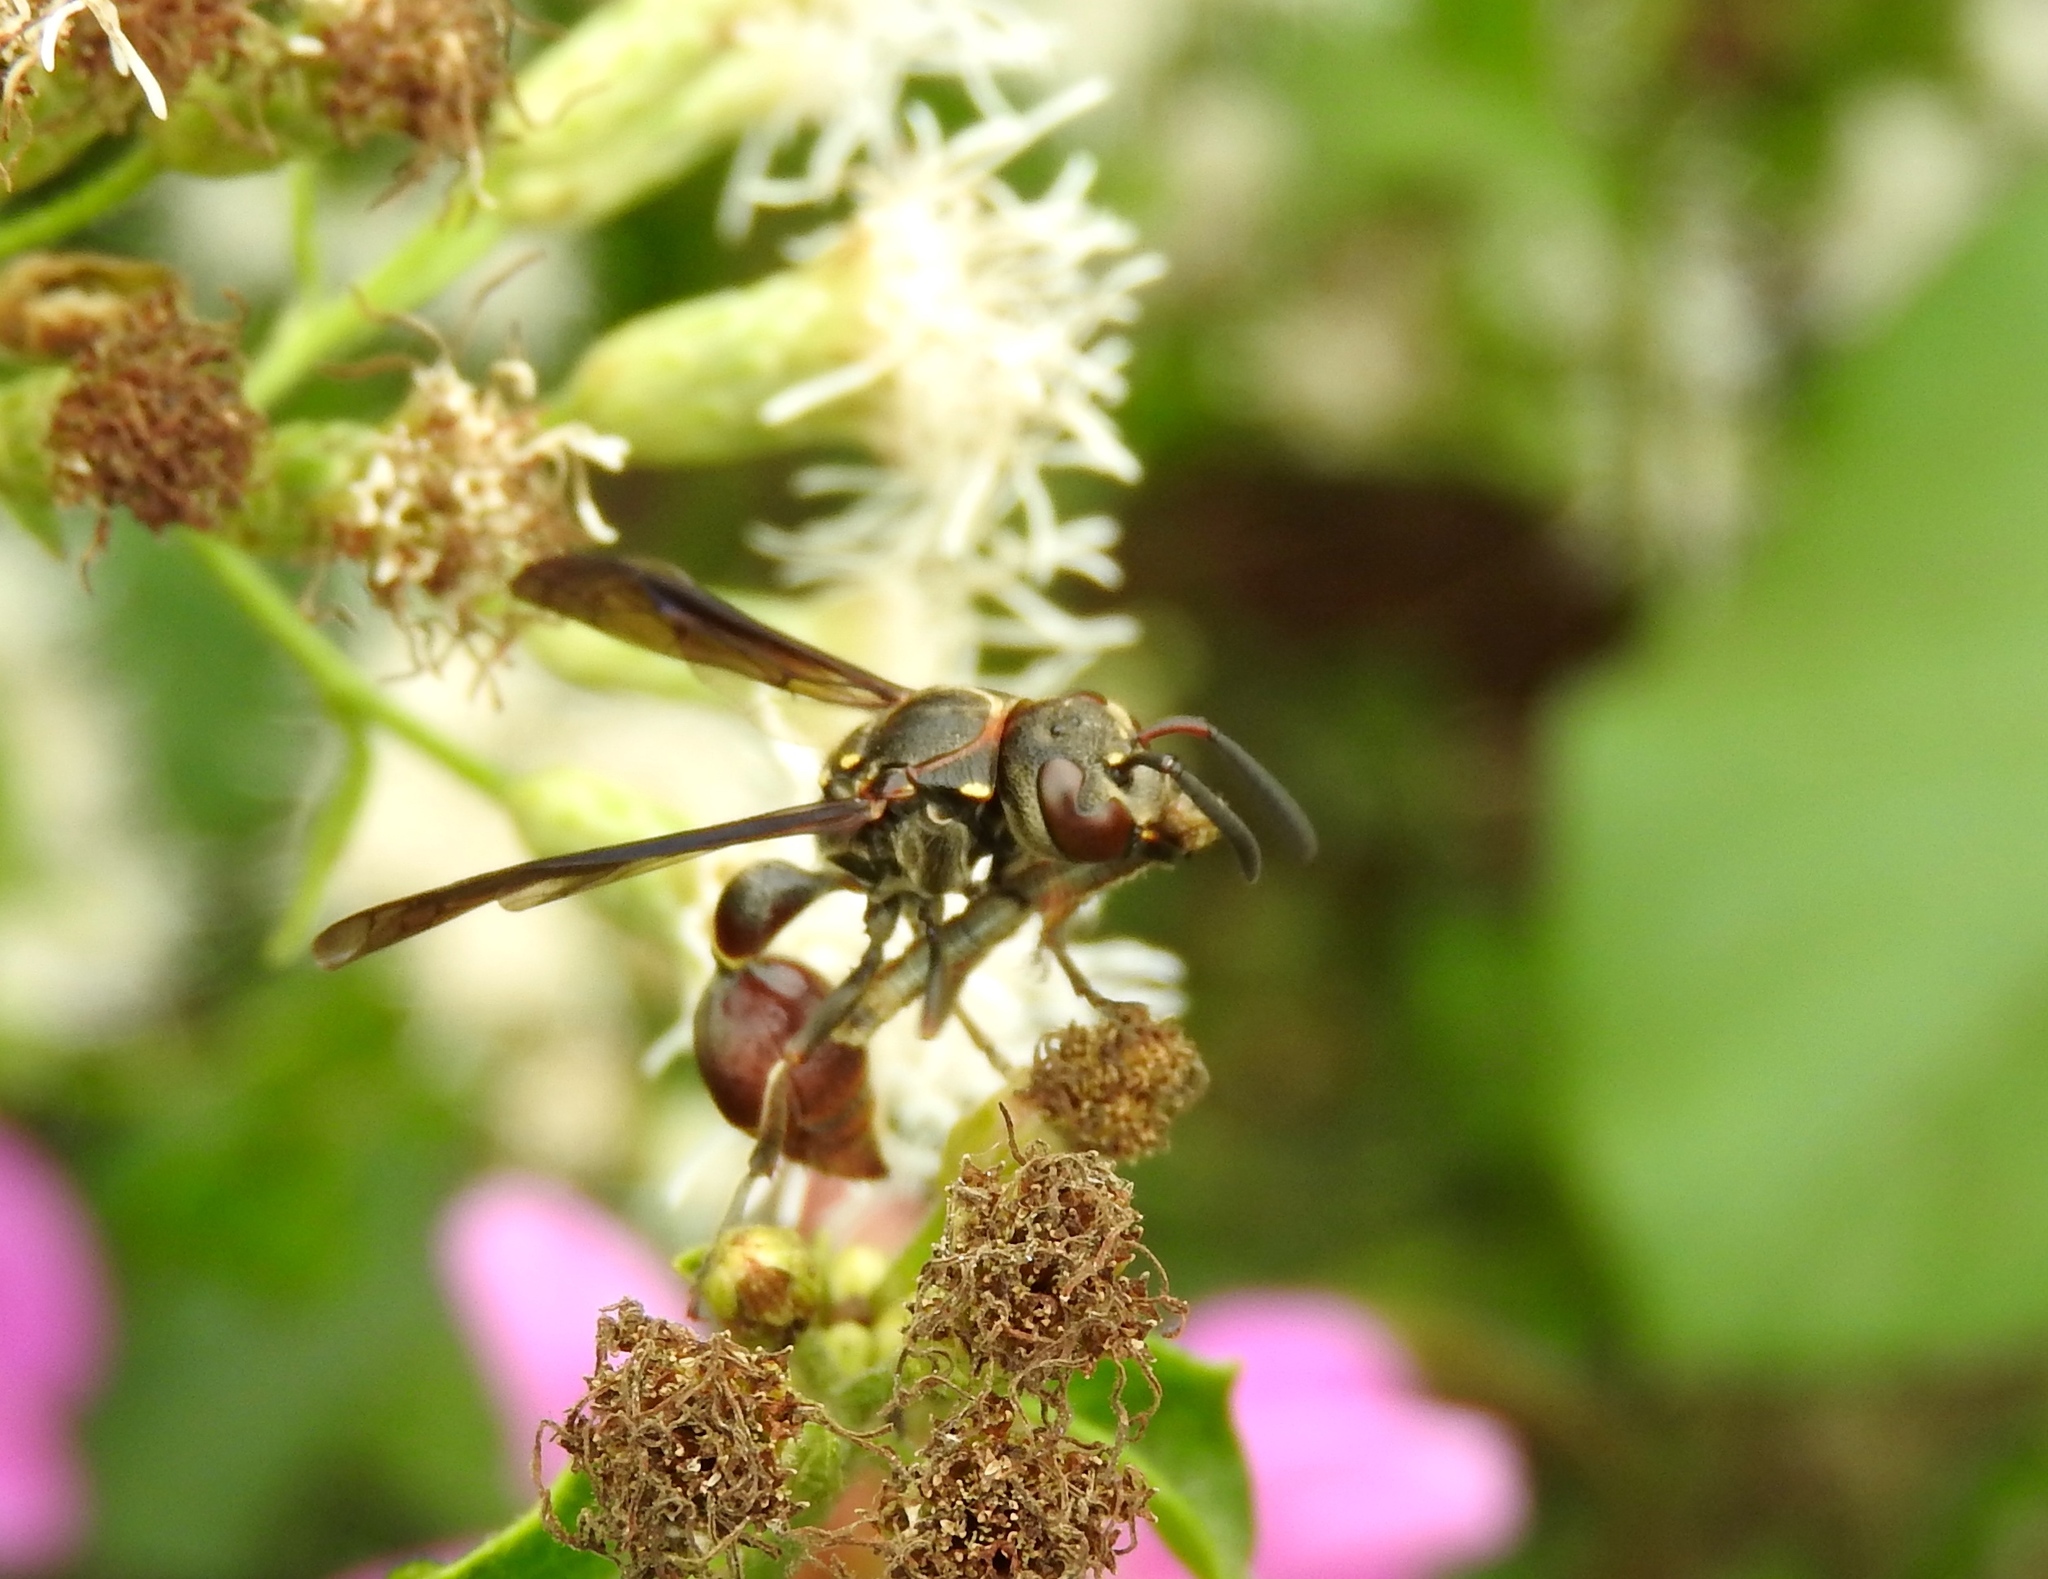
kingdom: Animalia
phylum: Arthropoda
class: Insecta
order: Hymenoptera
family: Eumenidae
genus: Zethus
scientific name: Zethus analis
